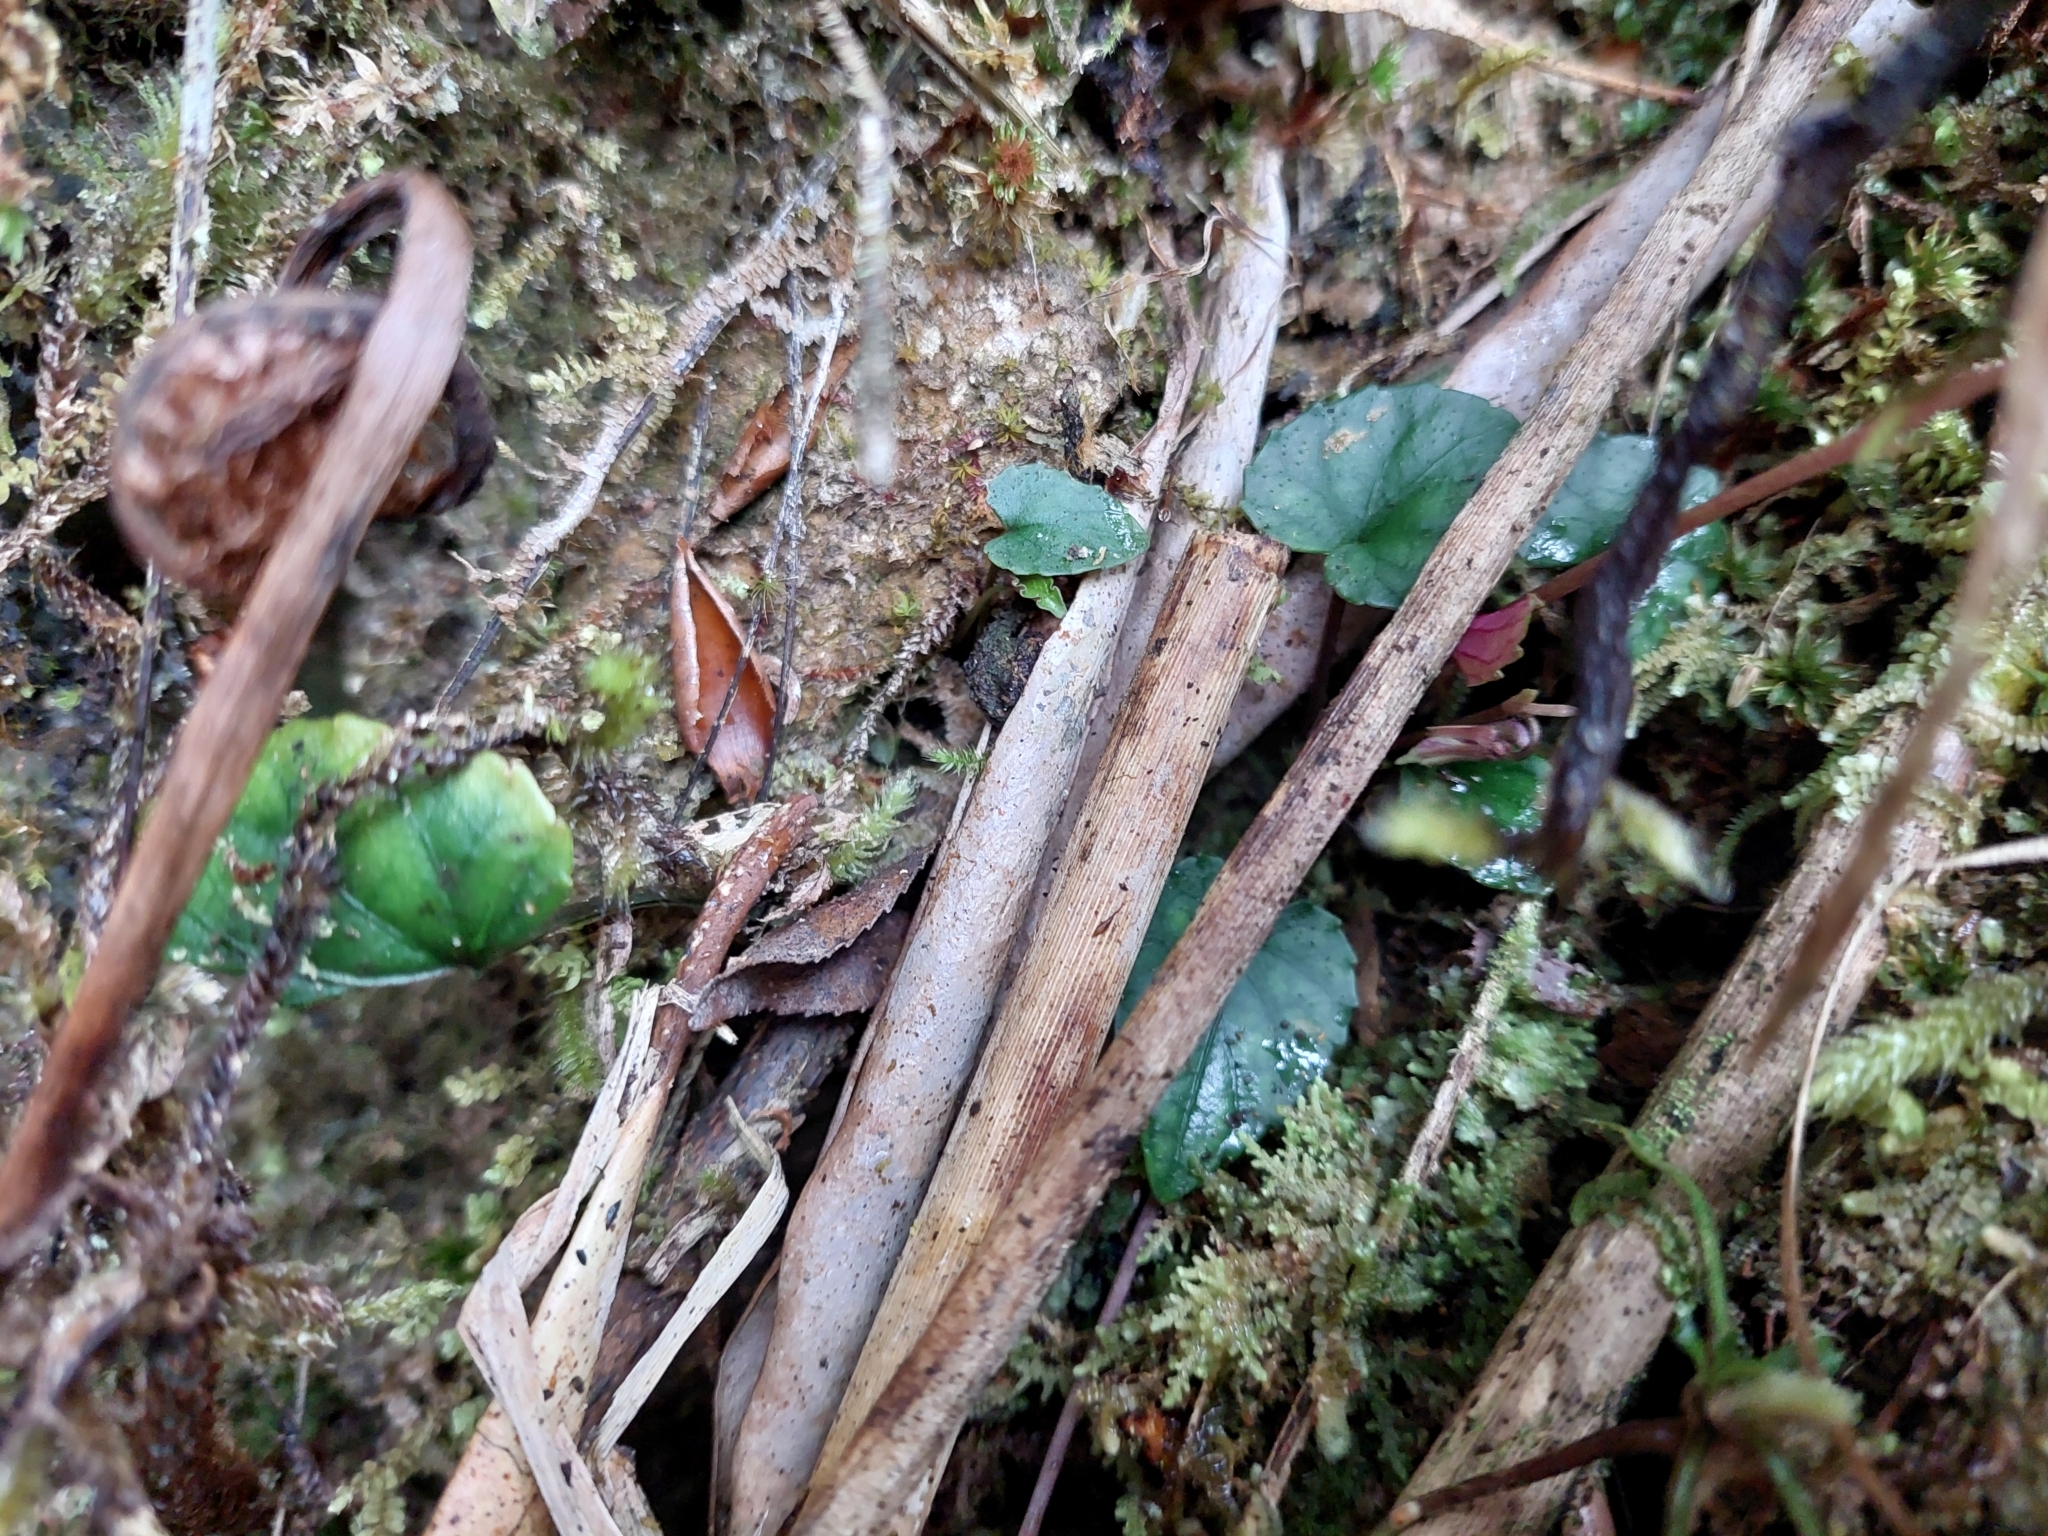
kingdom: Plantae
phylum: Tracheophyta
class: Magnoliopsida
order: Malpighiales
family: Violaceae
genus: Viola
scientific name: Viola formosana
